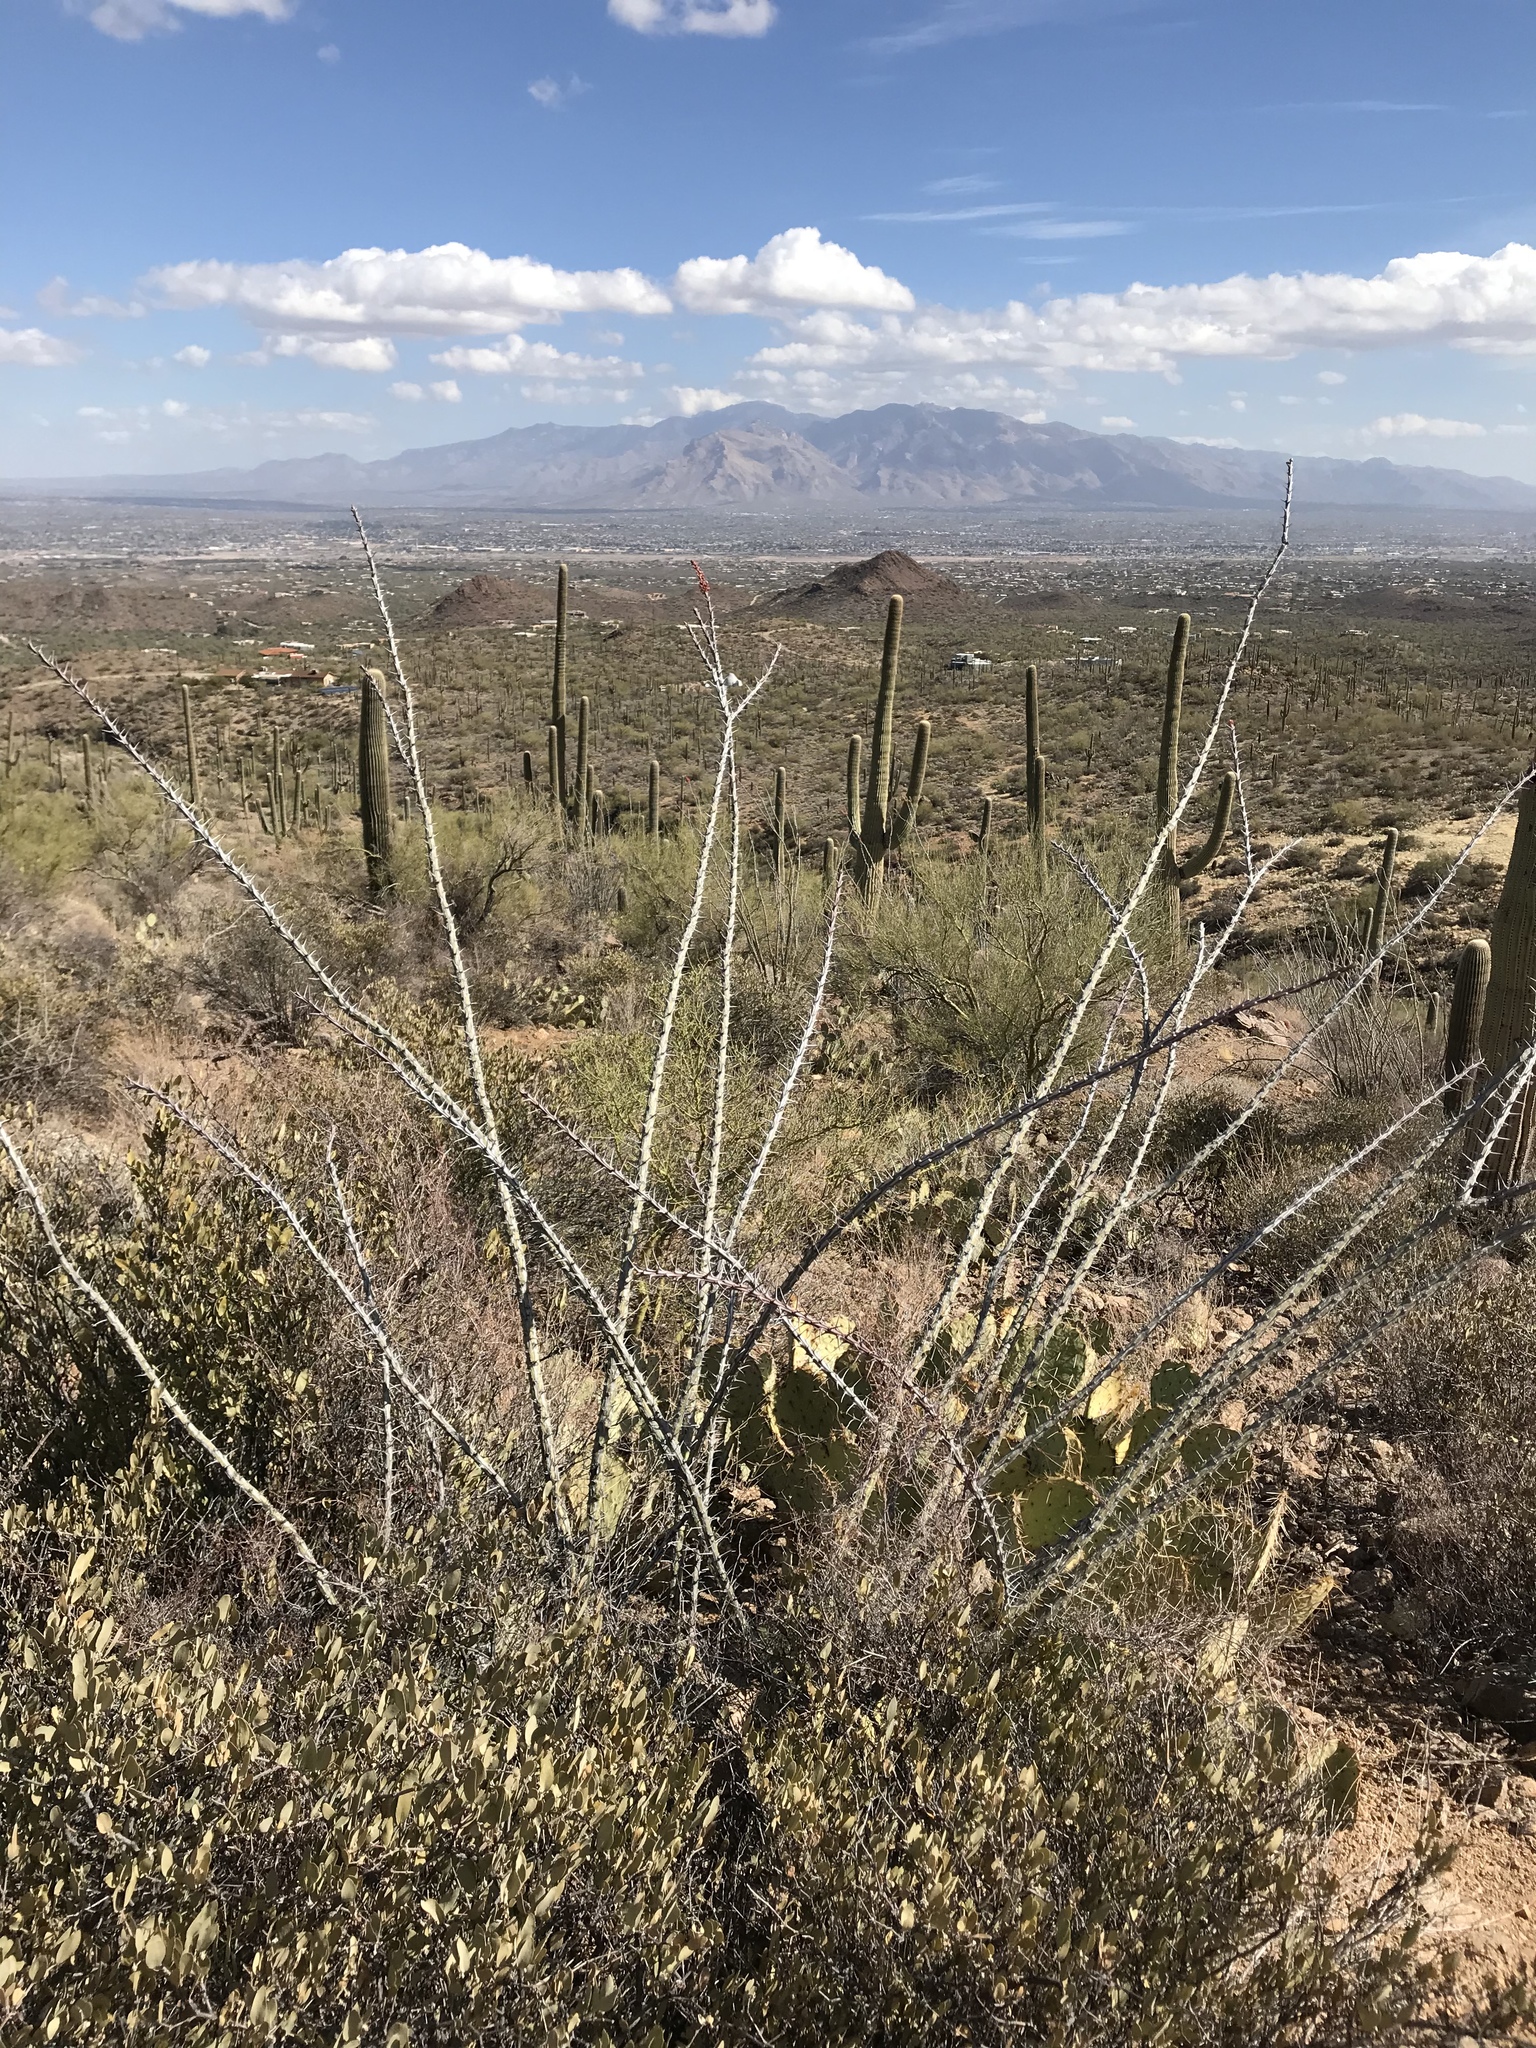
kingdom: Plantae
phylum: Tracheophyta
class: Magnoliopsida
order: Ericales
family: Fouquieriaceae
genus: Fouquieria
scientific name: Fouquieria splendens
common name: Vine-cactus
